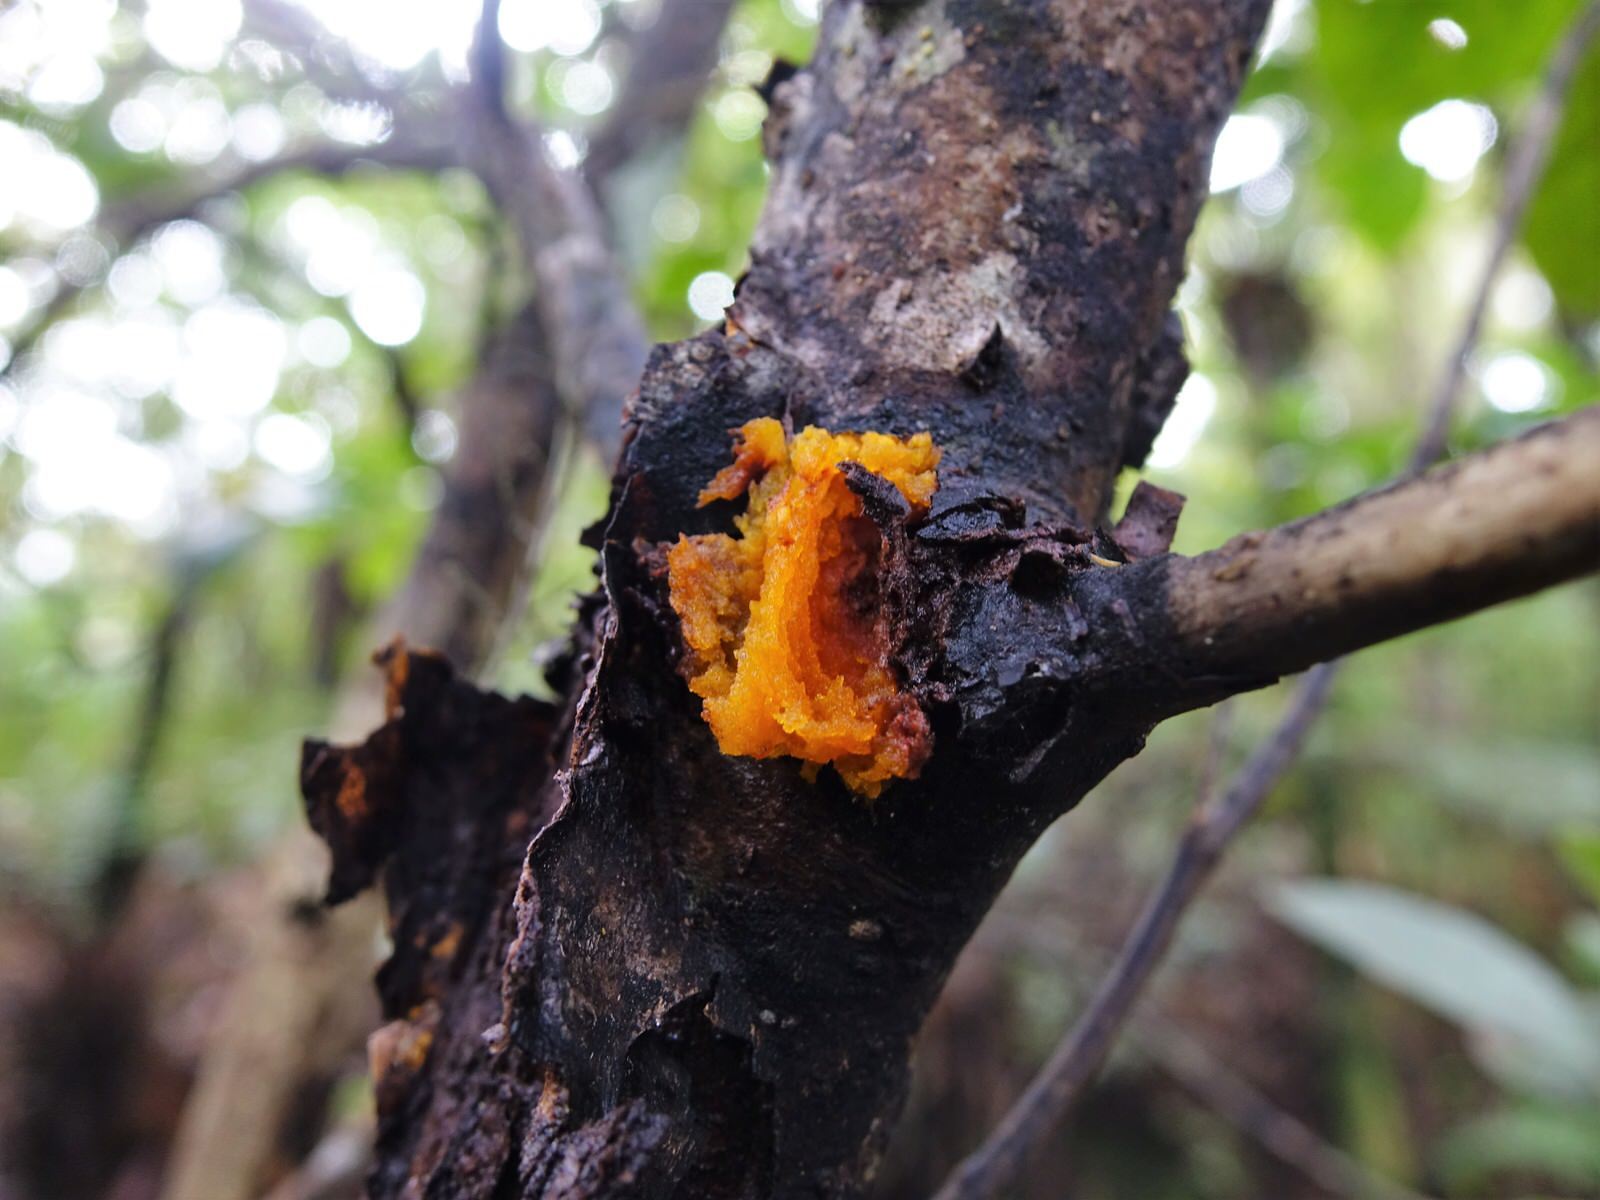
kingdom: Plantae
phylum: Tracheophyta
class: Magnoliopsida
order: Gentianales
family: Rubiaceae
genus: Coprosma
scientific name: Coprosma autumnalis
